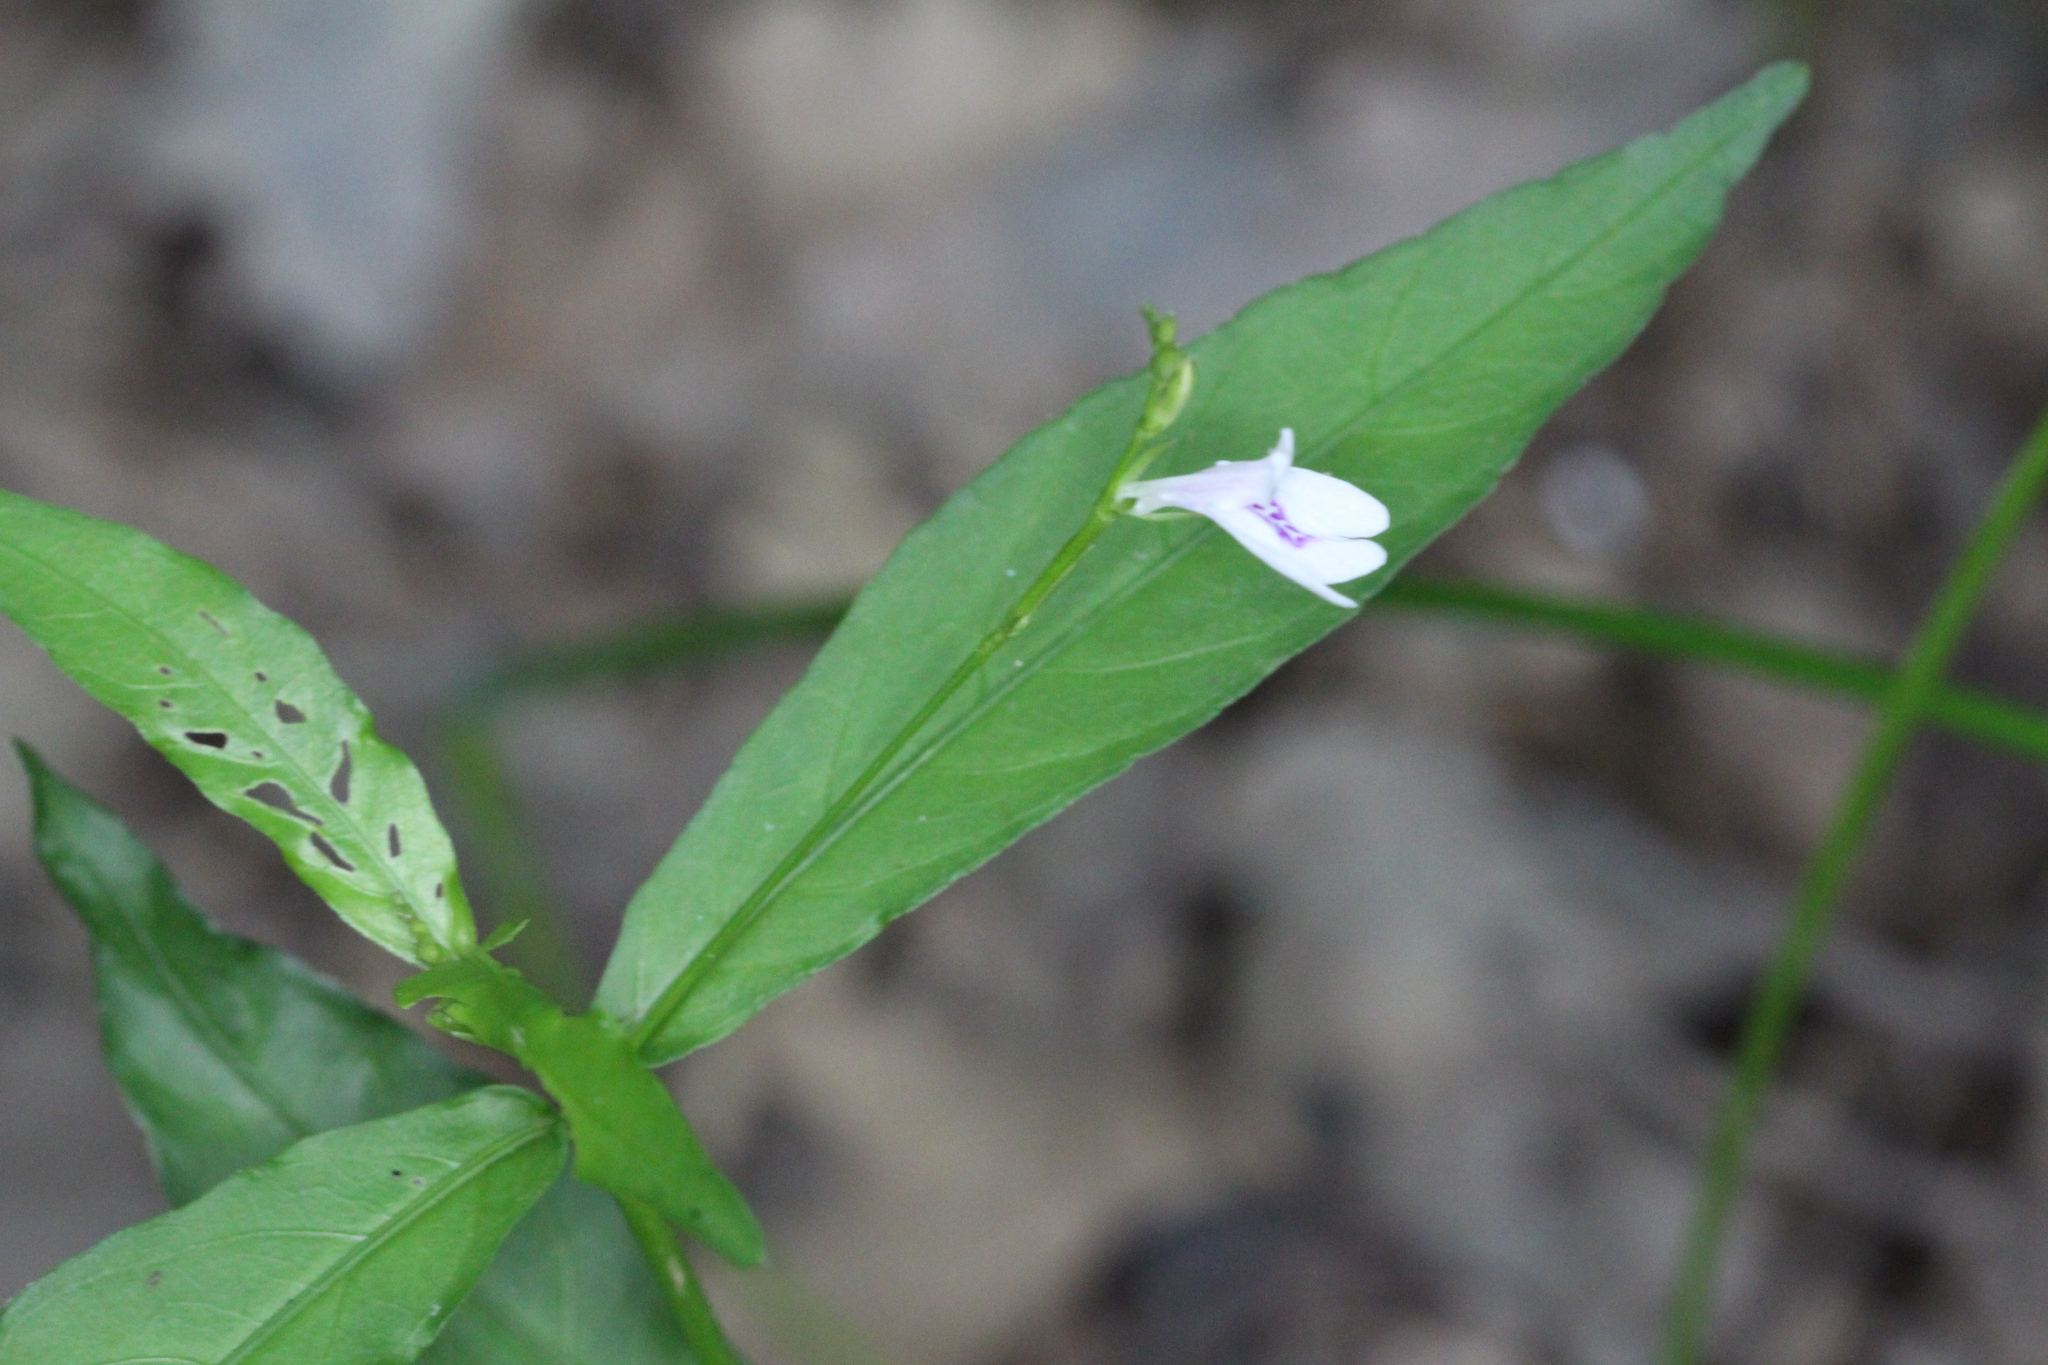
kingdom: Plantae
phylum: Tracheophyta
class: Magnoliopsida
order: Lamiales
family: Acanthaceae
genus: Justicia
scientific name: Justicia lanceolata
